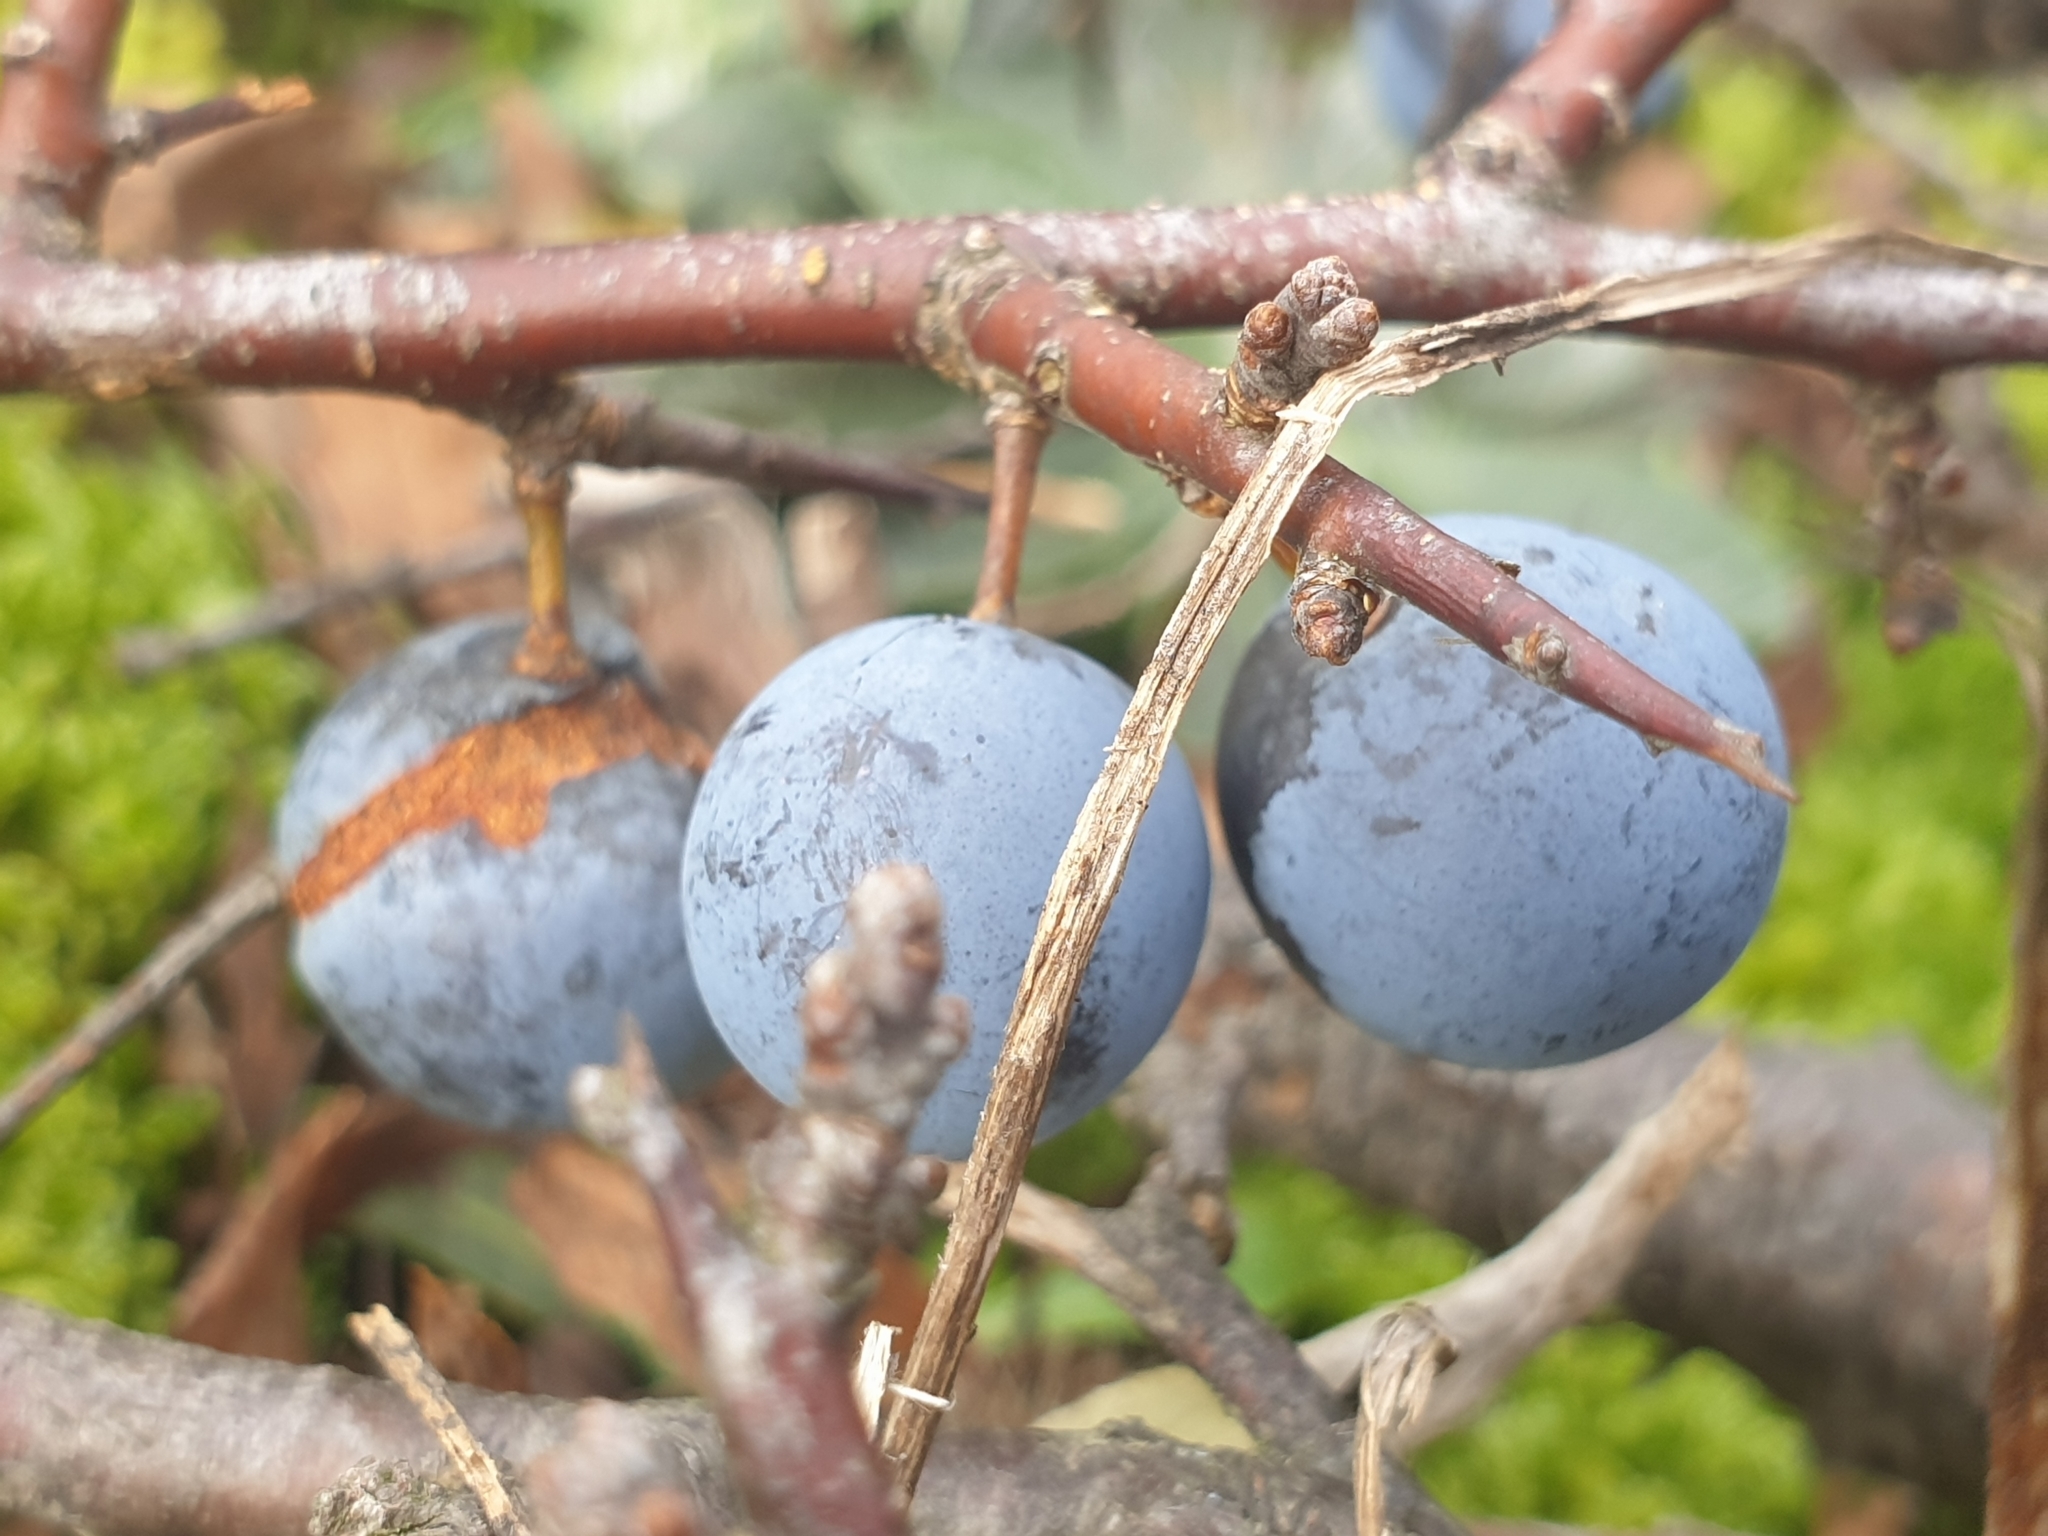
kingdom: Plantae
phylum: Tracheophyta
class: Magnoliopsida
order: Rosales
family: Rosaceae
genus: Prunus
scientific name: Prunus spinosa
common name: Blackthorn
